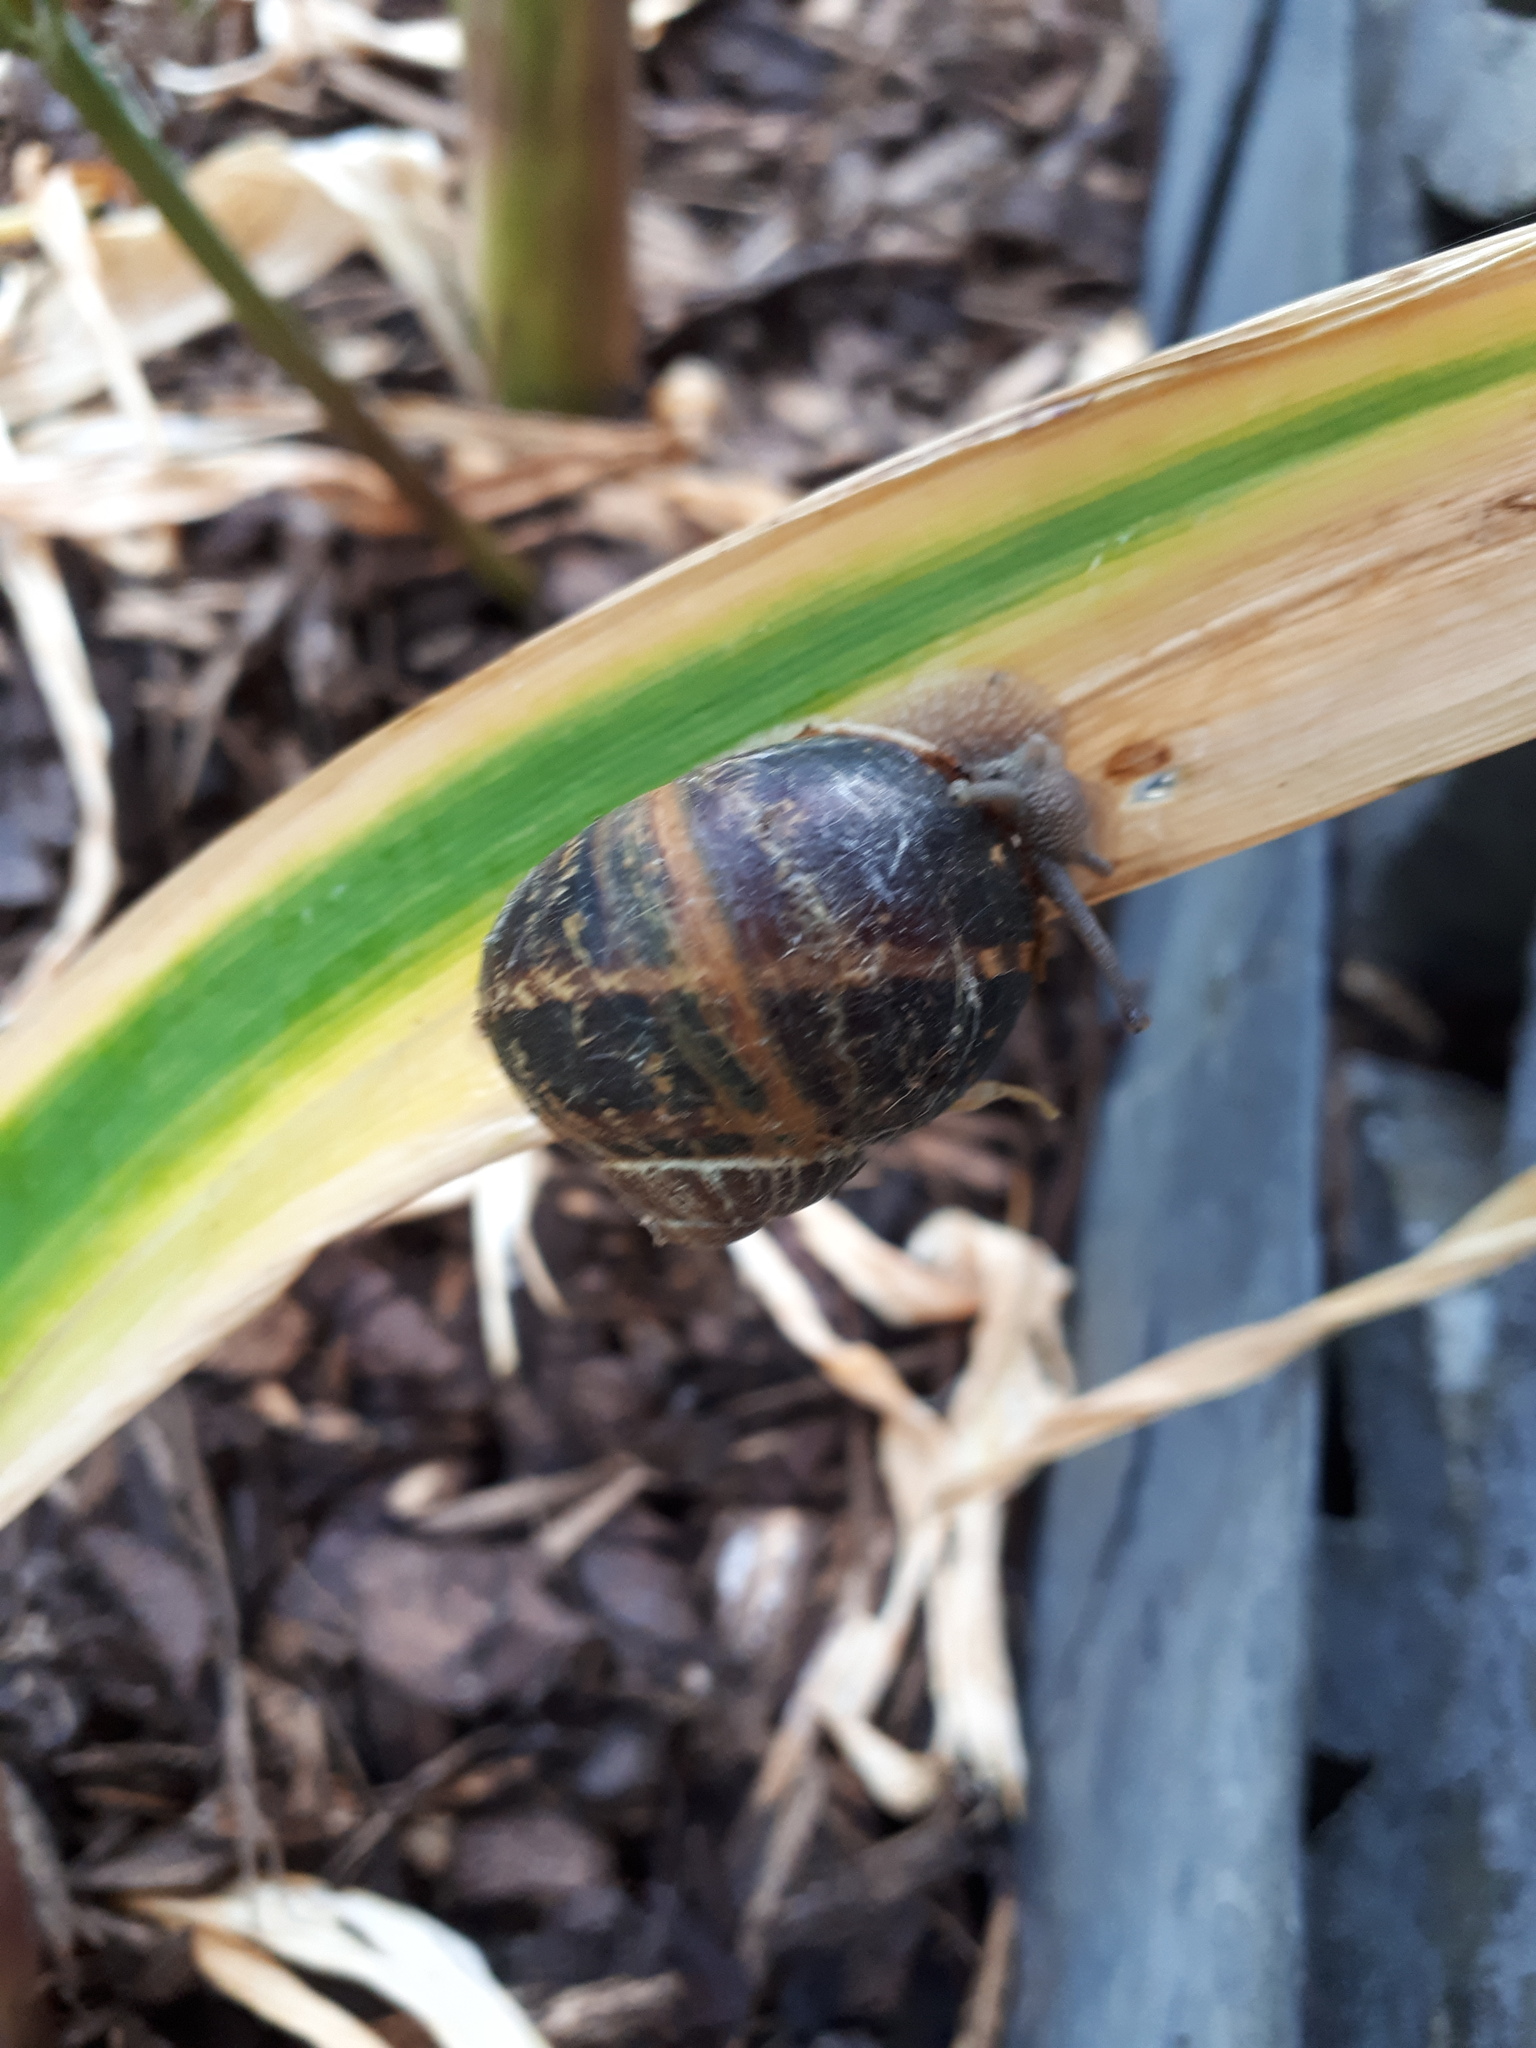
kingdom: Animalia
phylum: Mollusca
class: Gastropoda
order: Stylommatophora
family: Helicidae
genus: Cornu
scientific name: Cornu aspersum
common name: Brown garden snail
